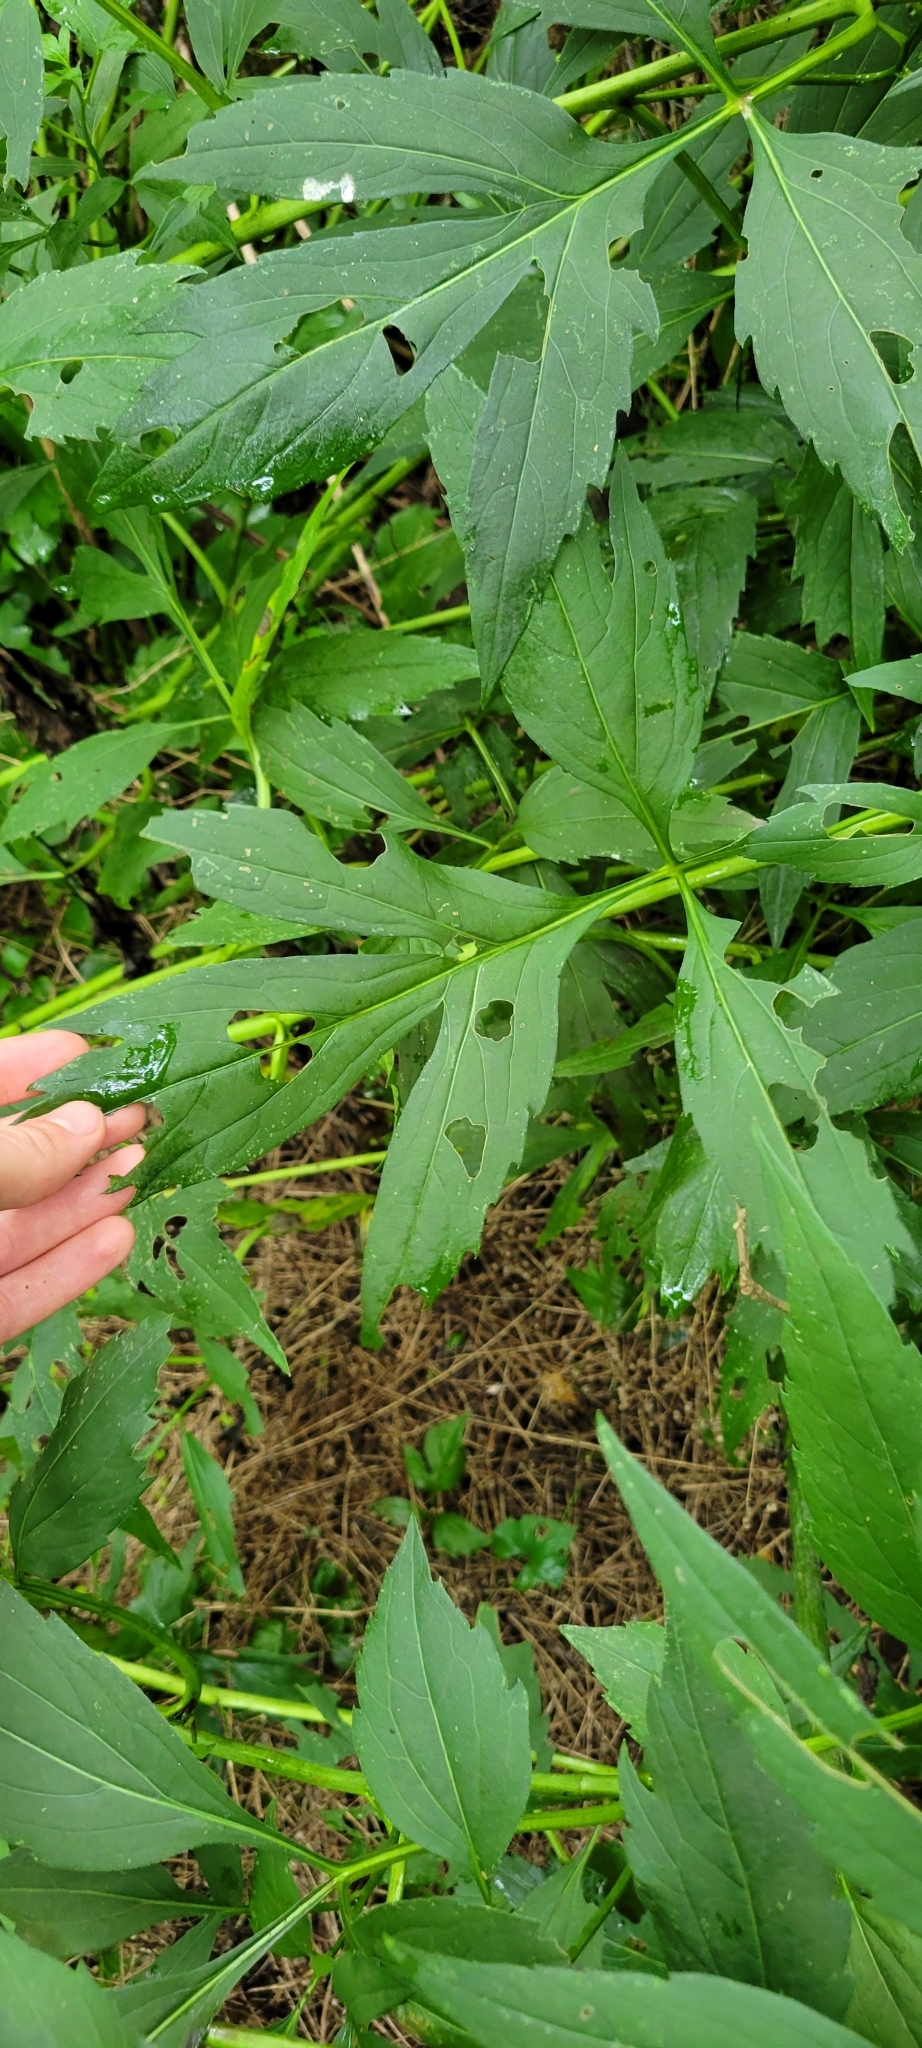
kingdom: Plantae
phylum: Tracheophyta
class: Magnoliopsida
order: Asterales
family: Asteraceae
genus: Rudbeckia
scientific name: Rudbeckia laciniata
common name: Coneflower
